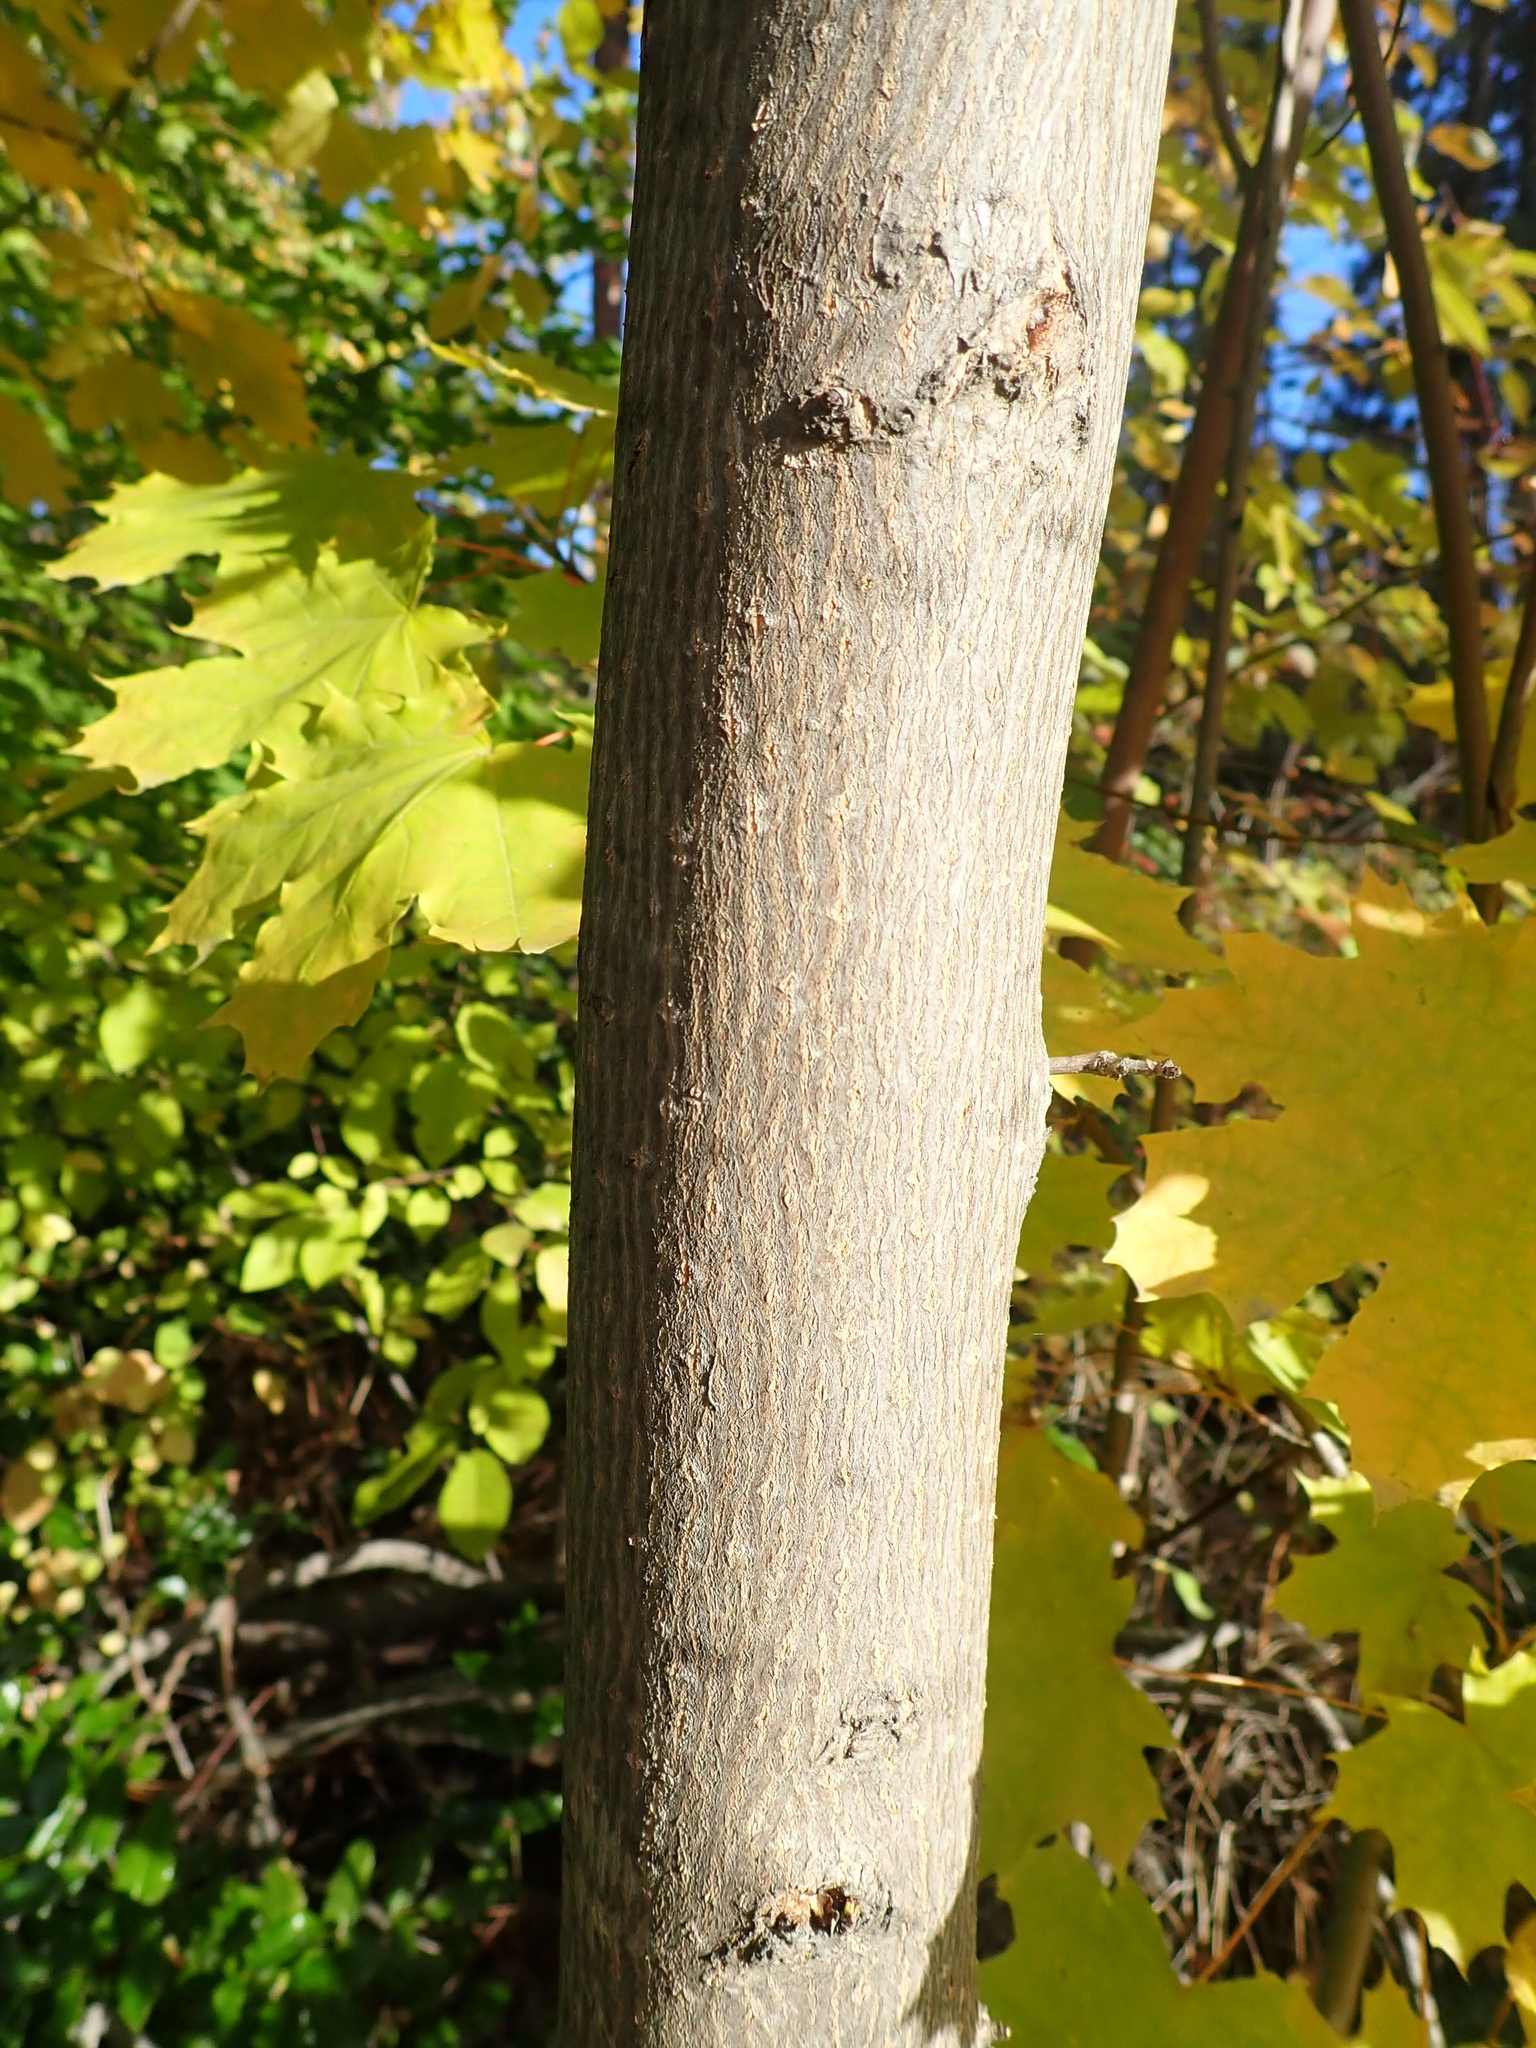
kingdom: Plantae
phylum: Tracheophyta
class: Magnoliopsida
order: Sapindales
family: Sapindaceae
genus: Acer
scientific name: Acer platanoides
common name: Norway maple
